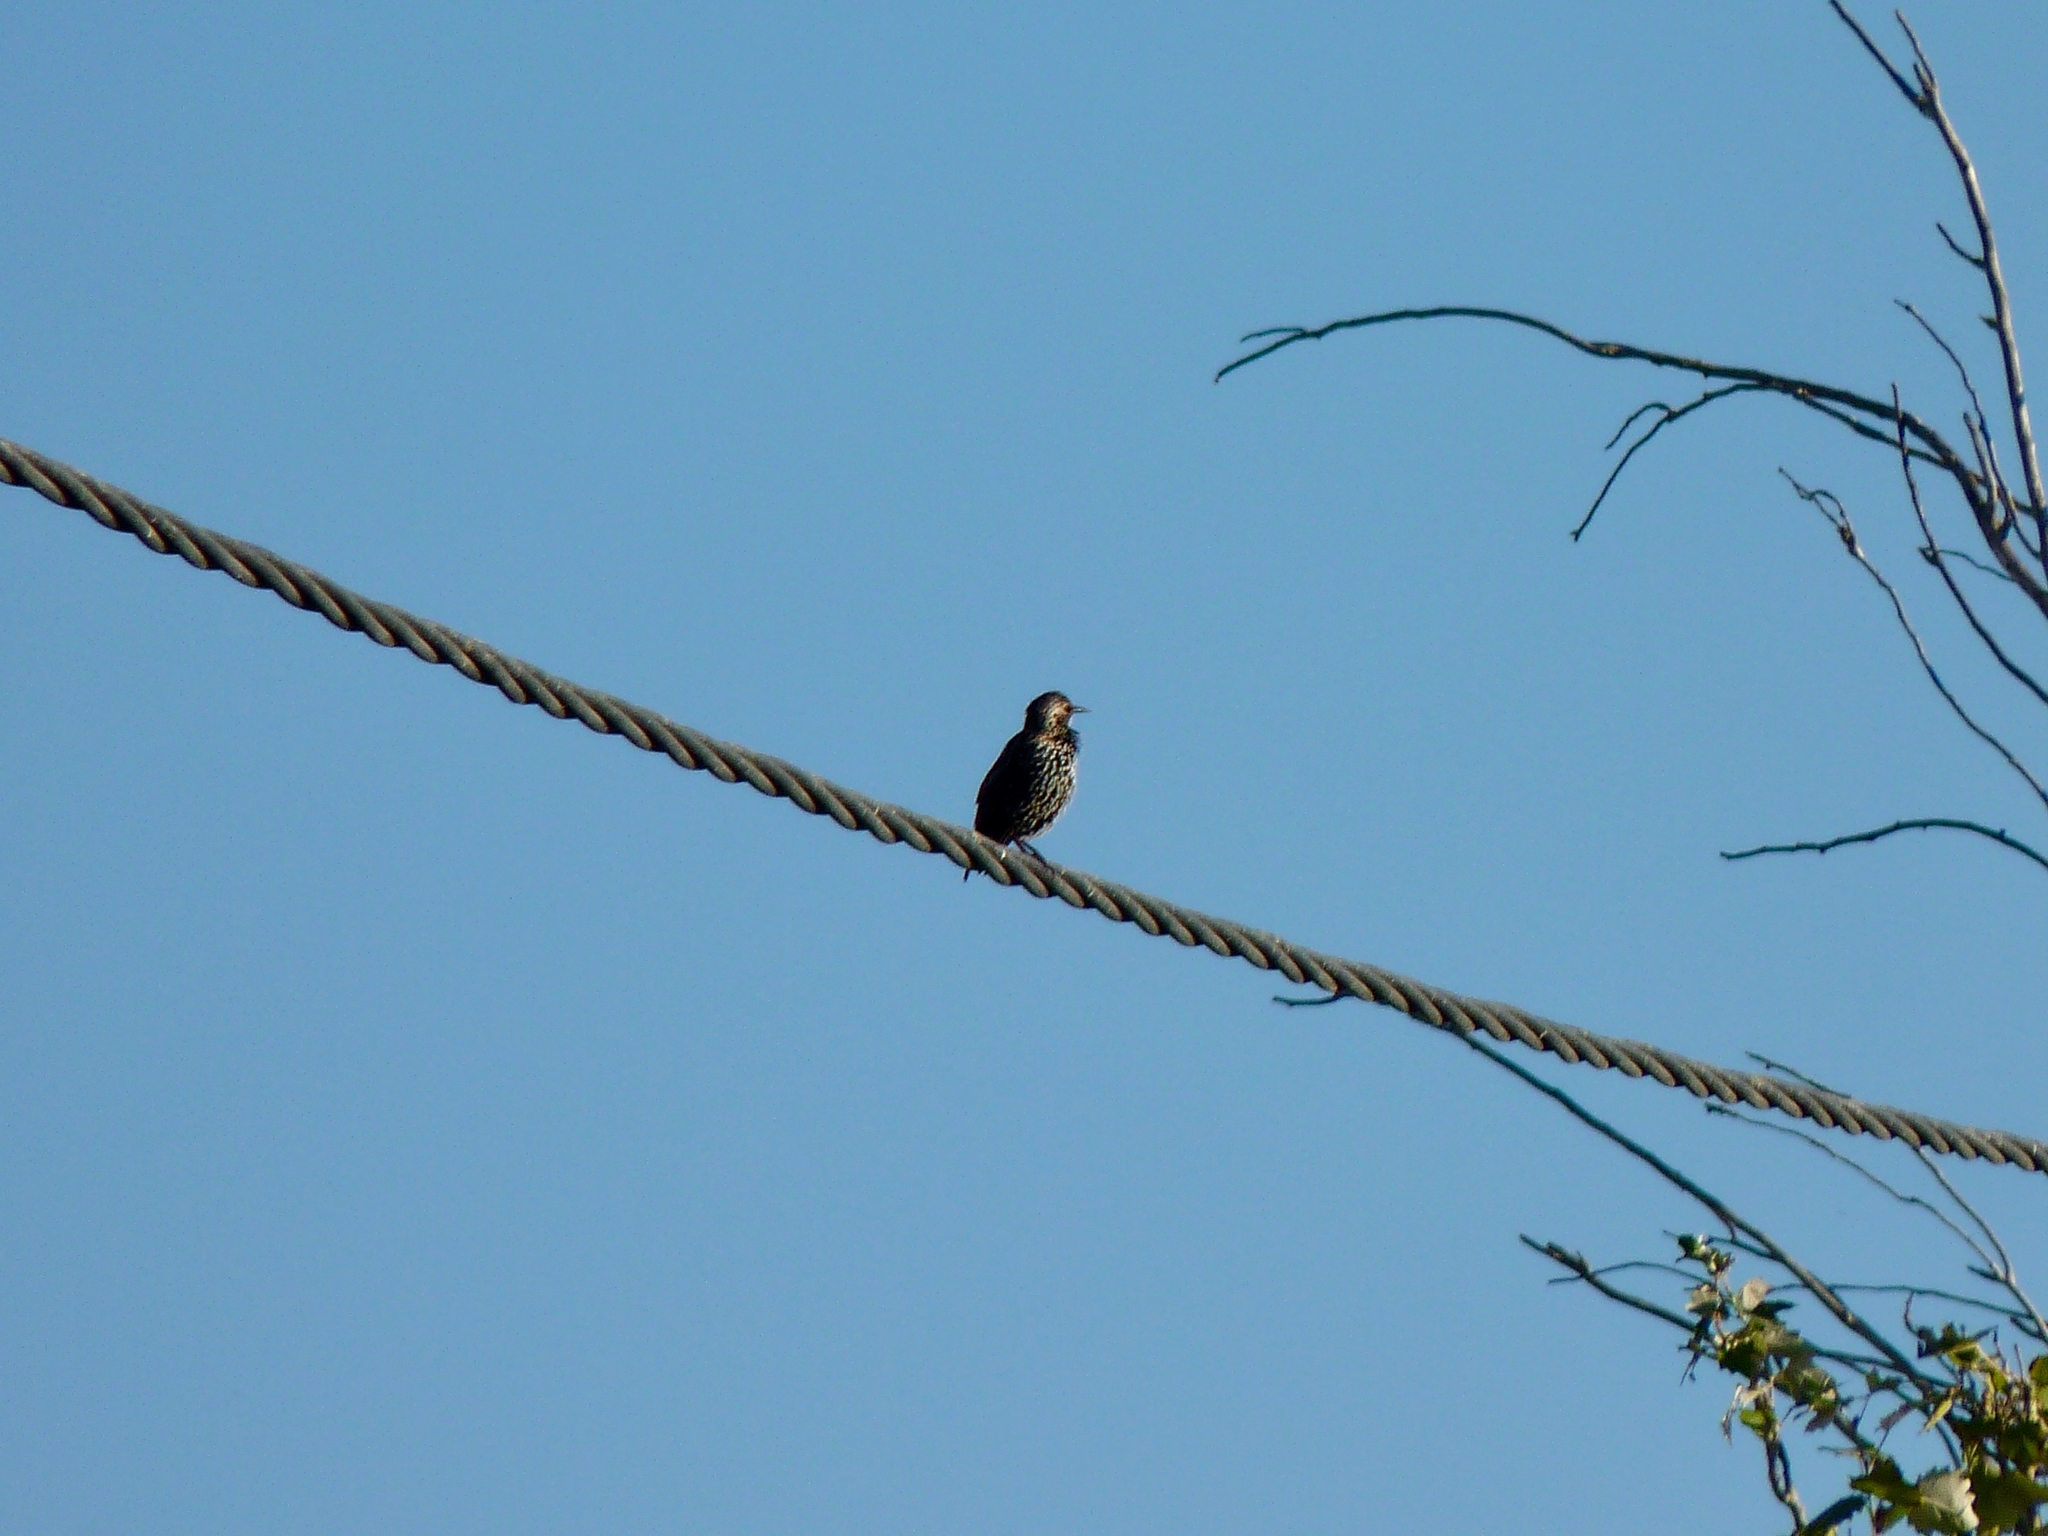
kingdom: Animalia
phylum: Chordata
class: Aves
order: Passeriformes
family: Sturnidae
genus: Sturnus
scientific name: Sturnus vulgaris
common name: Common starling
